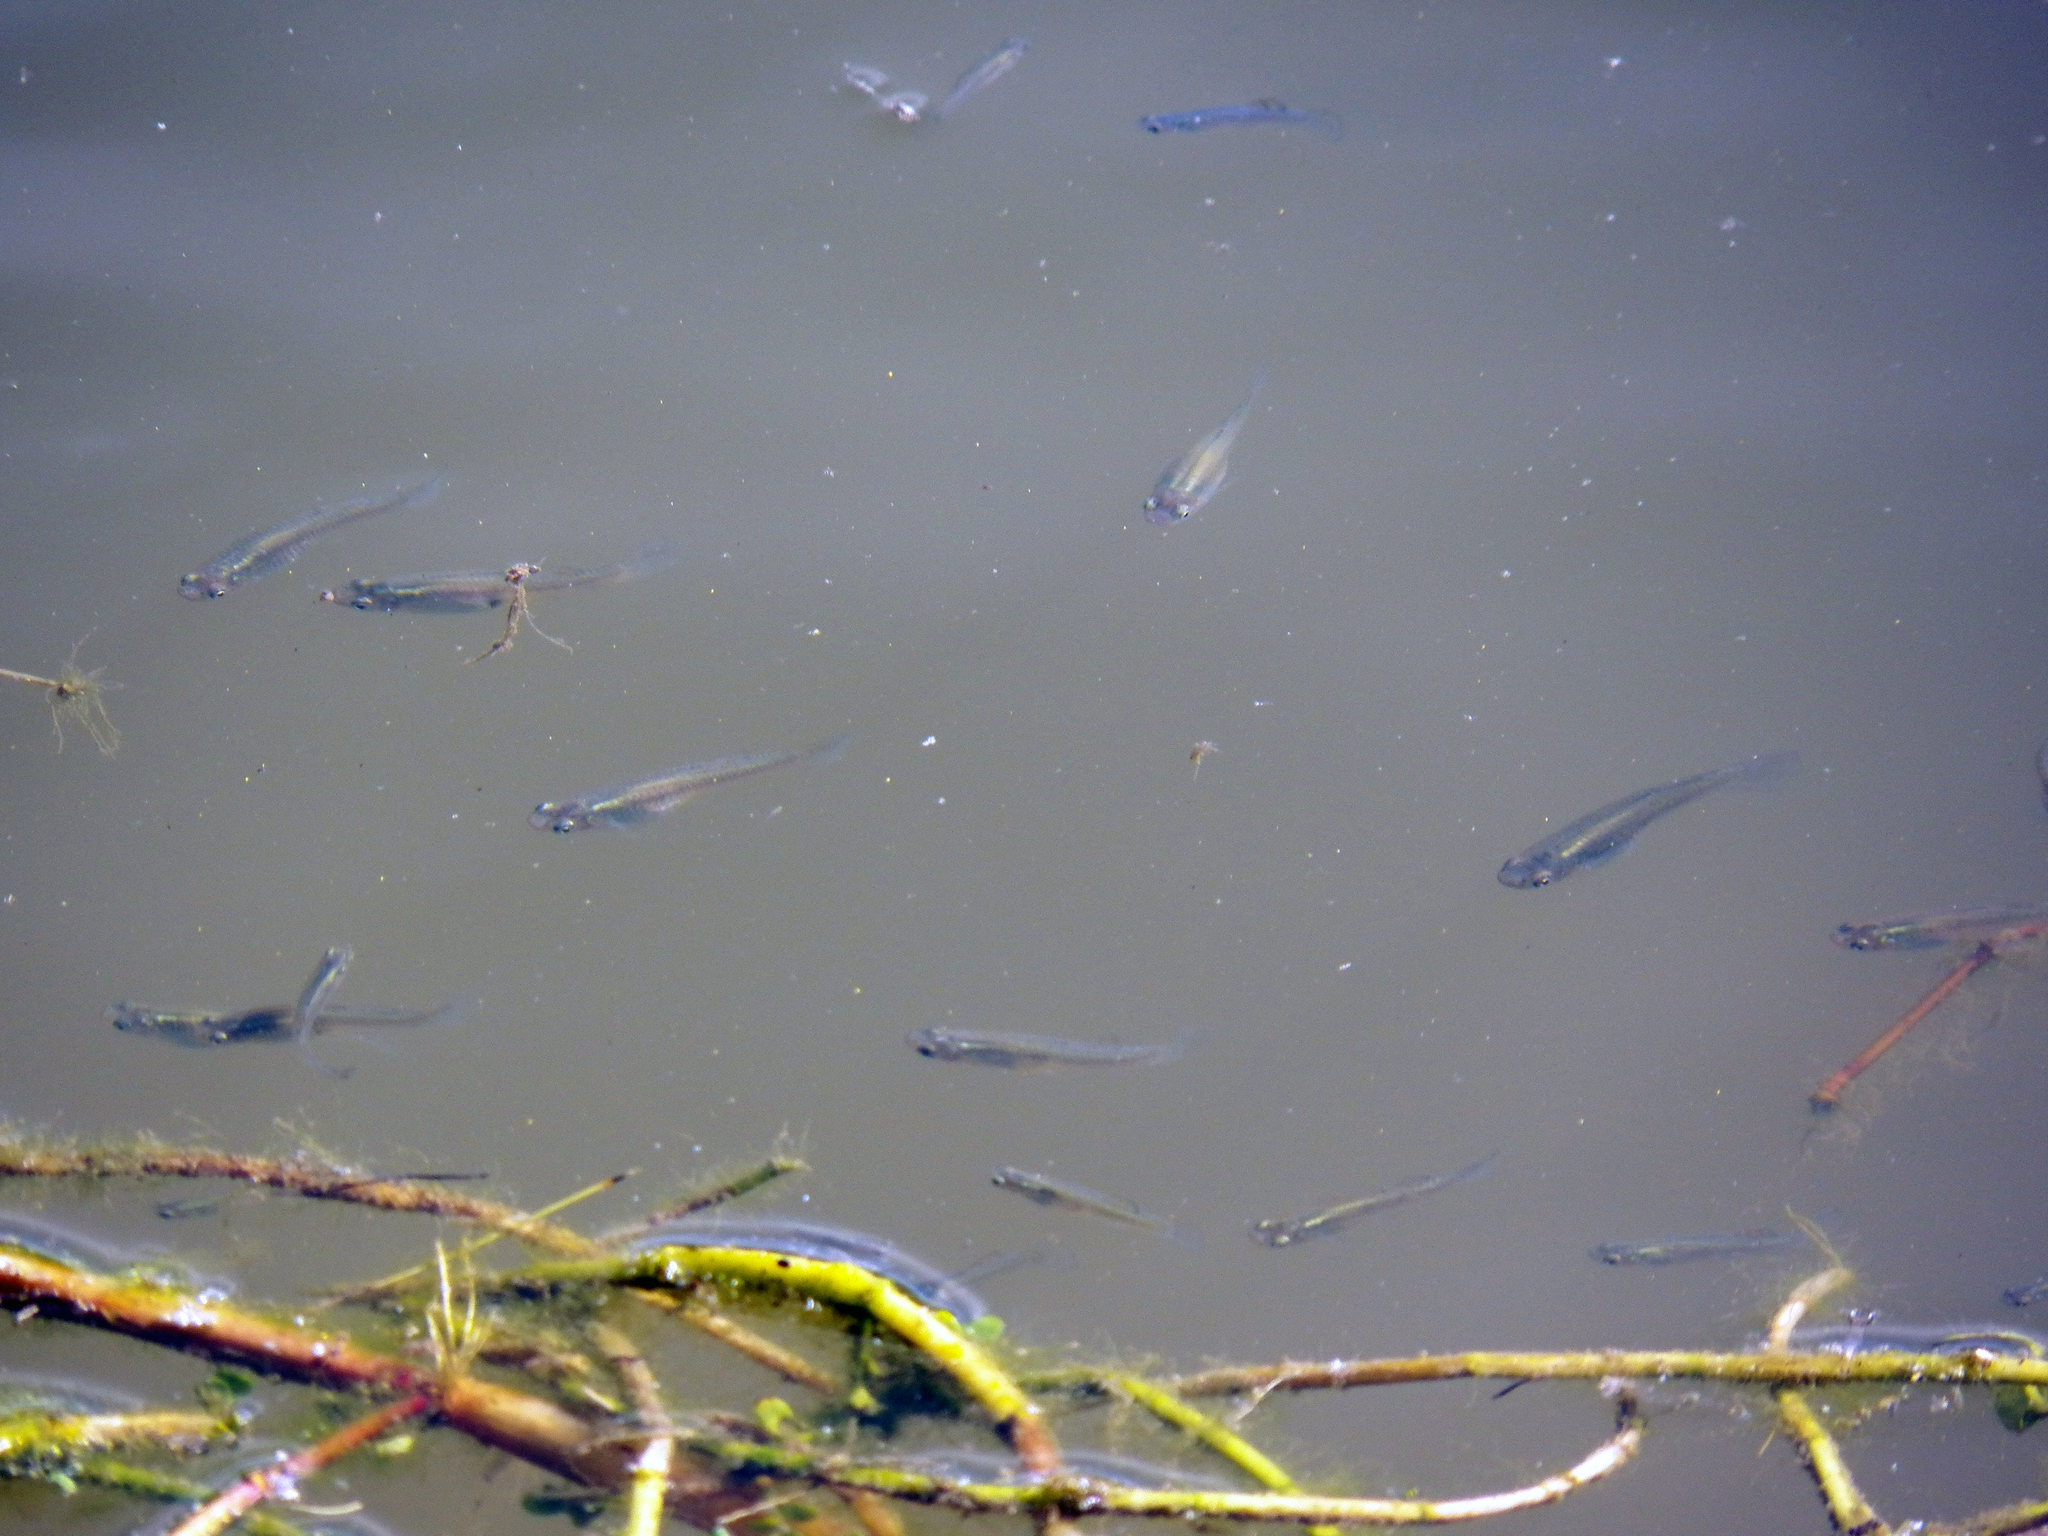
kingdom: Animalia
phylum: Chordata
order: Cyprinodontiformes
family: Poeciliidae
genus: Gambusia
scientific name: Gambusia affinis
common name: Mosquitofish
